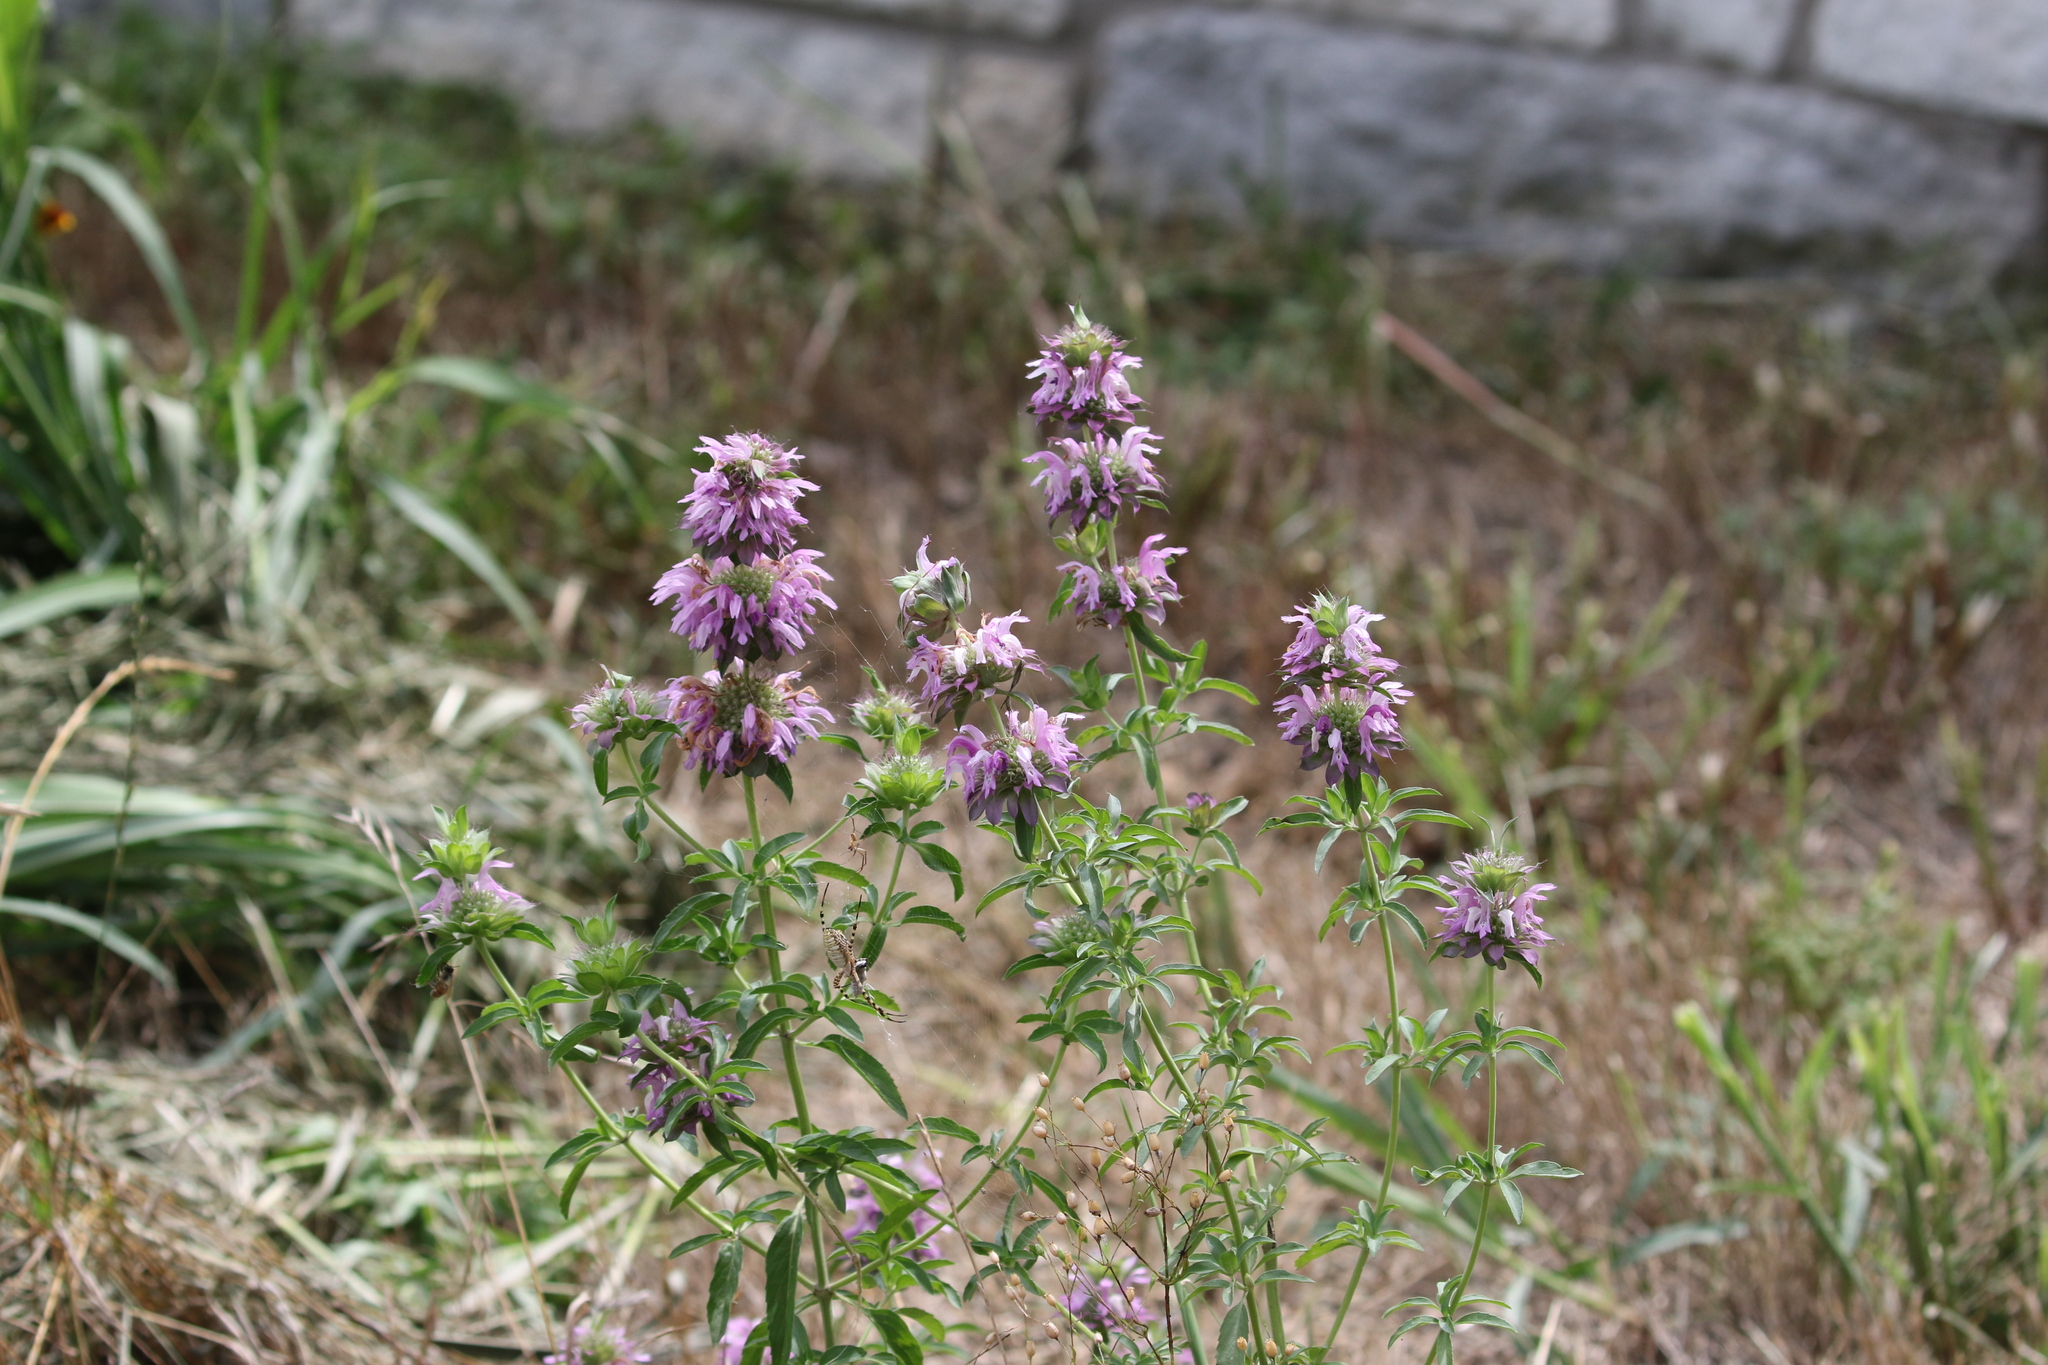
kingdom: Plantae
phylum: Tracheophyta
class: Magnoliopsida
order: Lamiales
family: Lamiaceae
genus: Monarda
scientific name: Monarda citriodora
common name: Lemon beebalm
